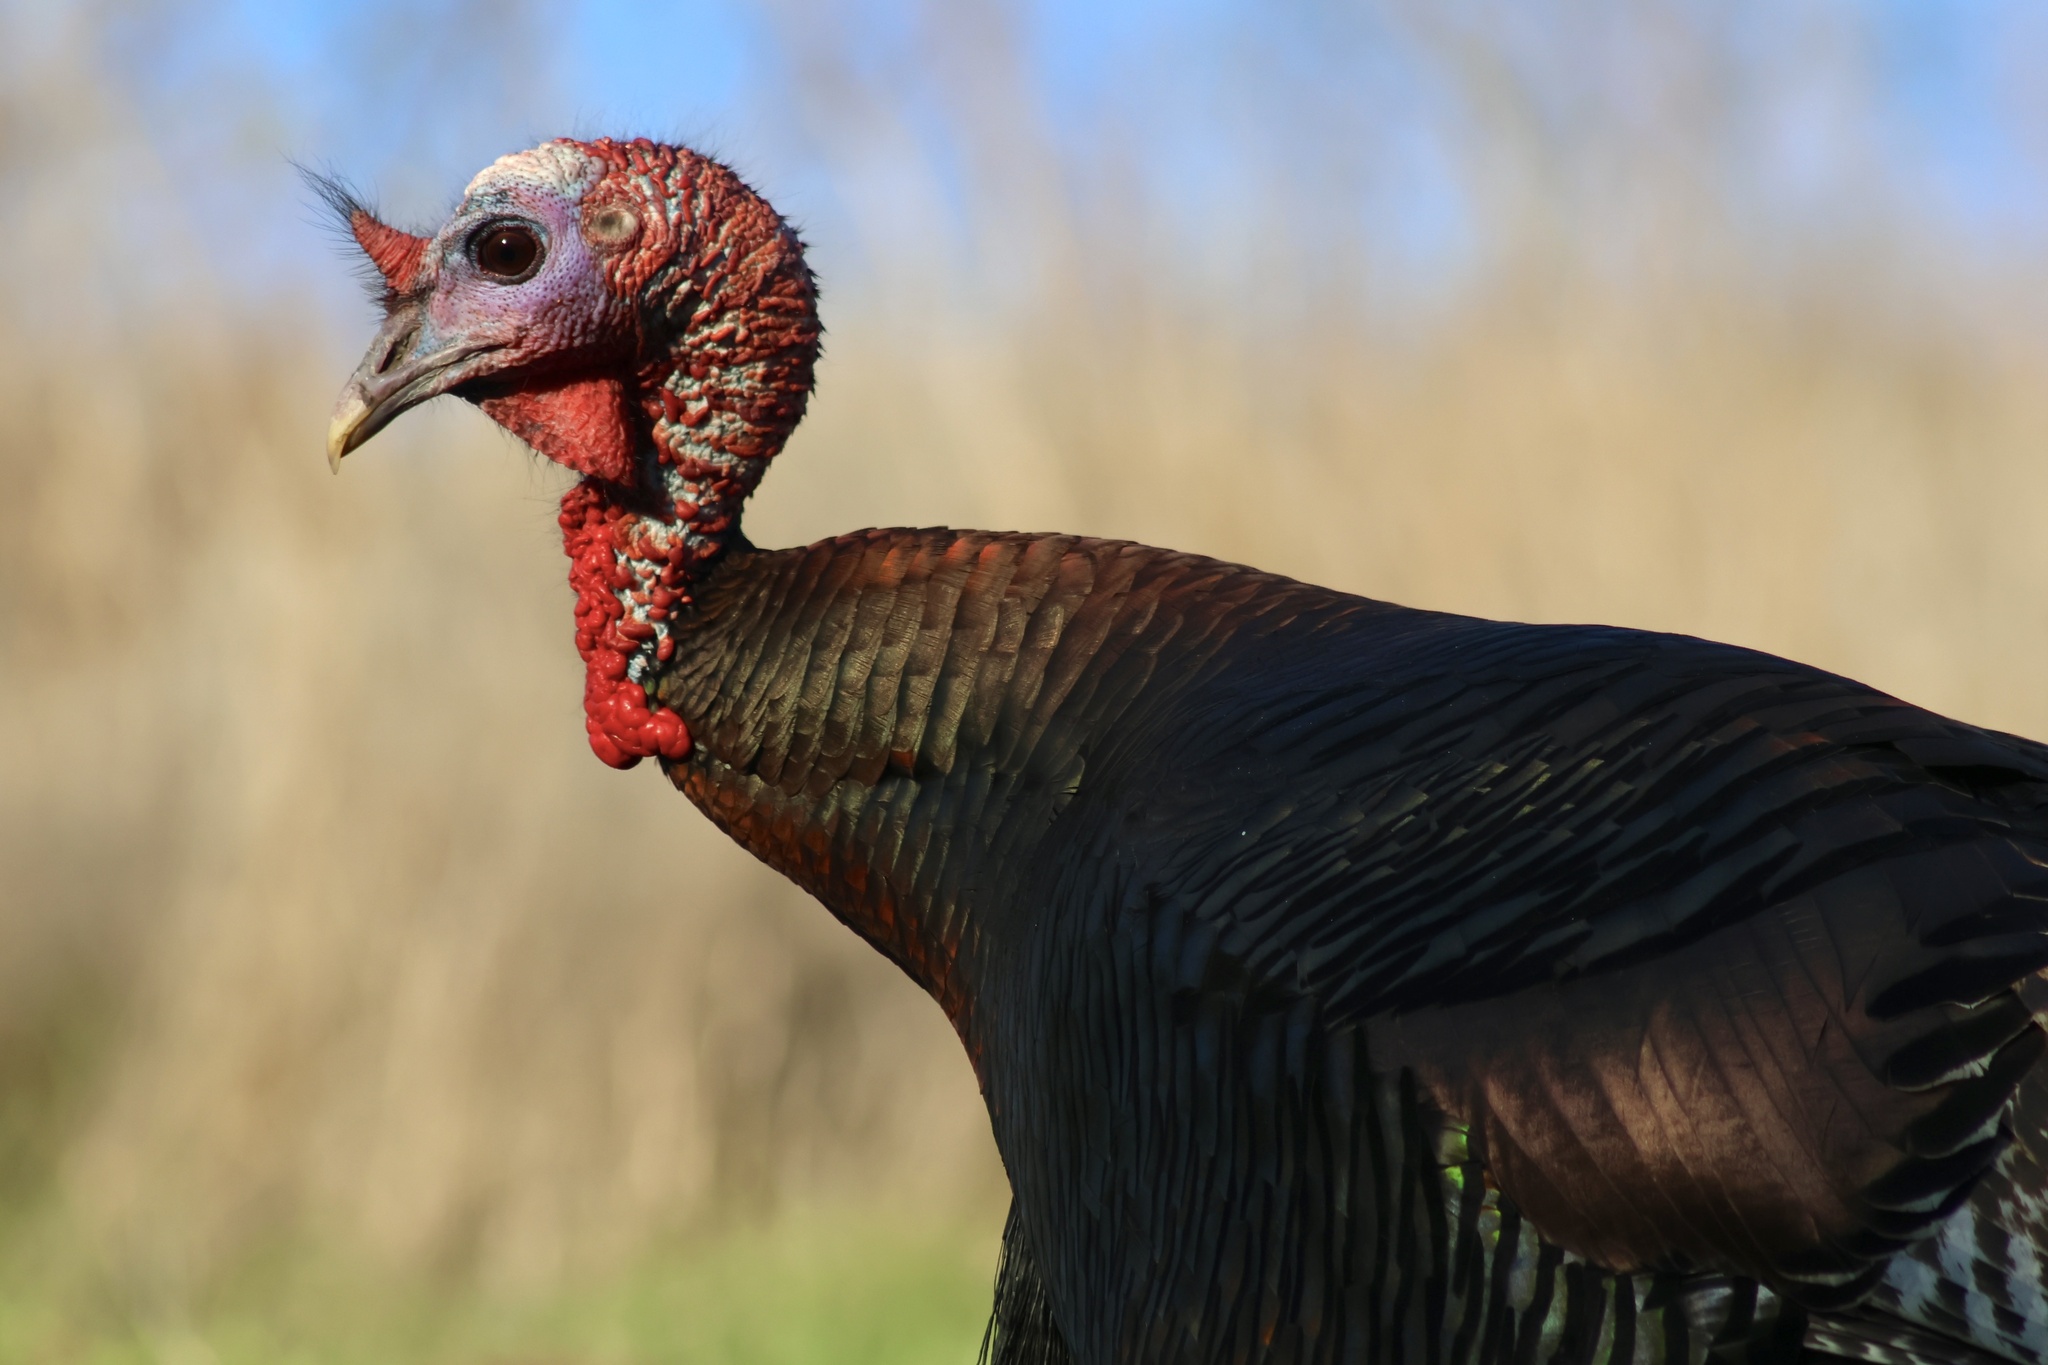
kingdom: Animalia
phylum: Chordata
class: Aves
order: Galliformes
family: Phasianidae
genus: Meleagris
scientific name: Meleagris gallopavo
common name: Wild turkey
